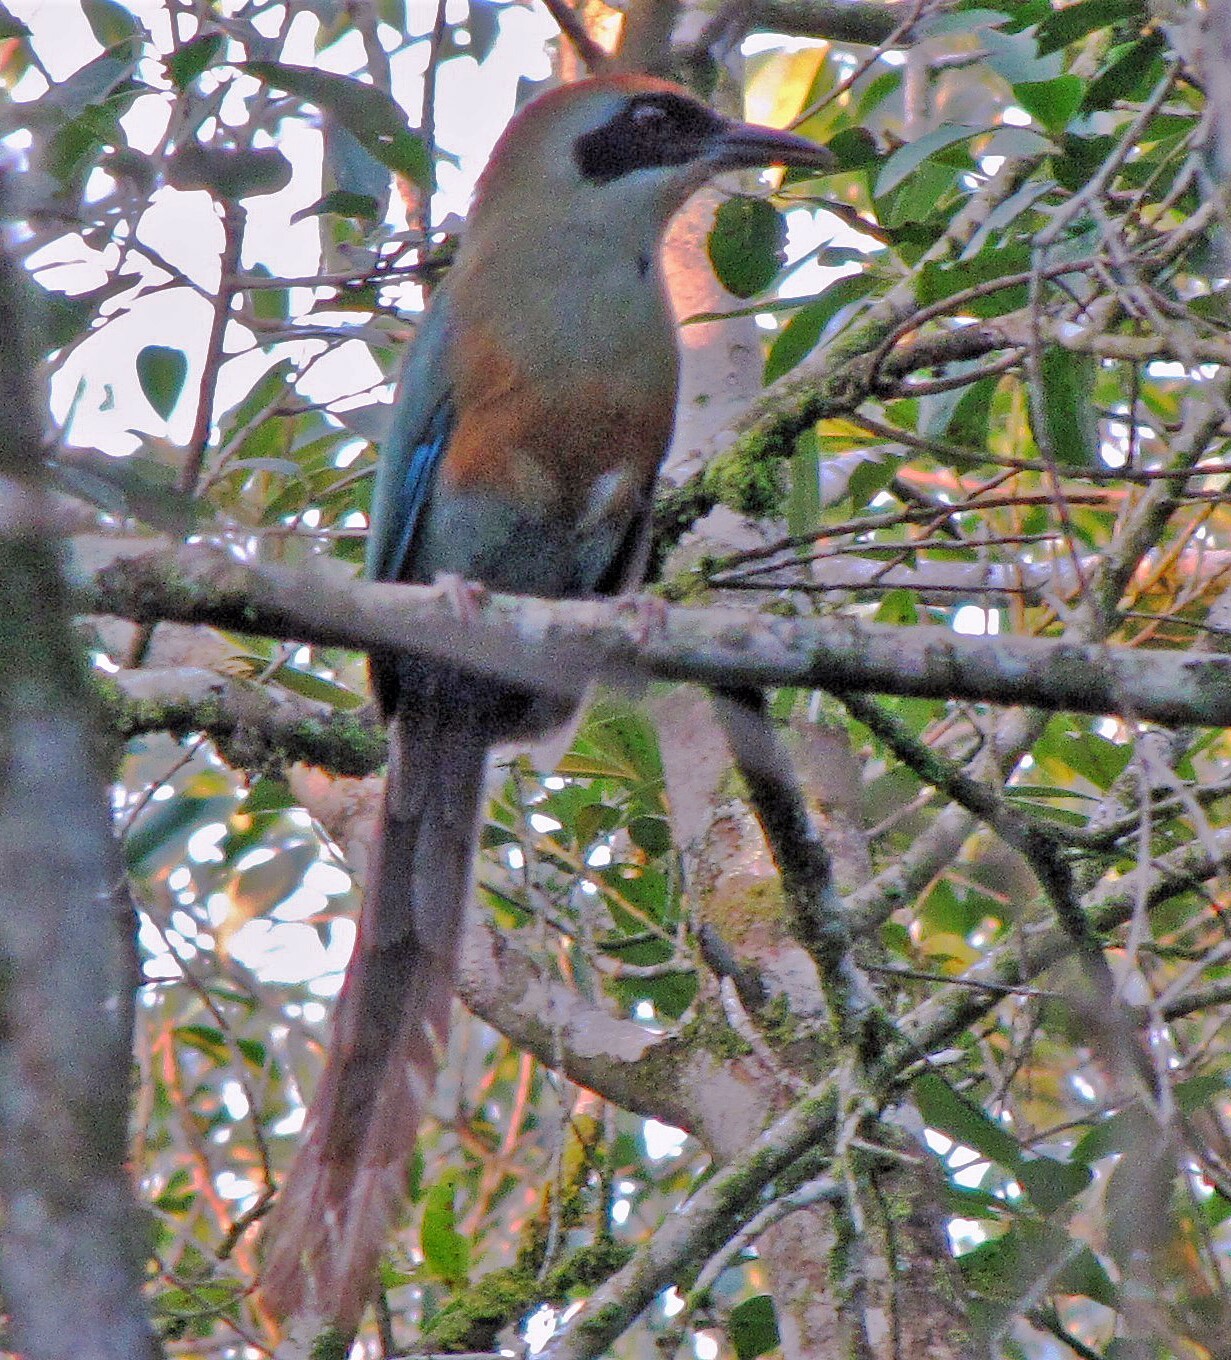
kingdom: Animalia
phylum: Chordata
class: Aves
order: Coraciiformes
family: Momotidae
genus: Baryphthengus
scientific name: Baryphthengus ruficapillus
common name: Rufous-capped motmot
